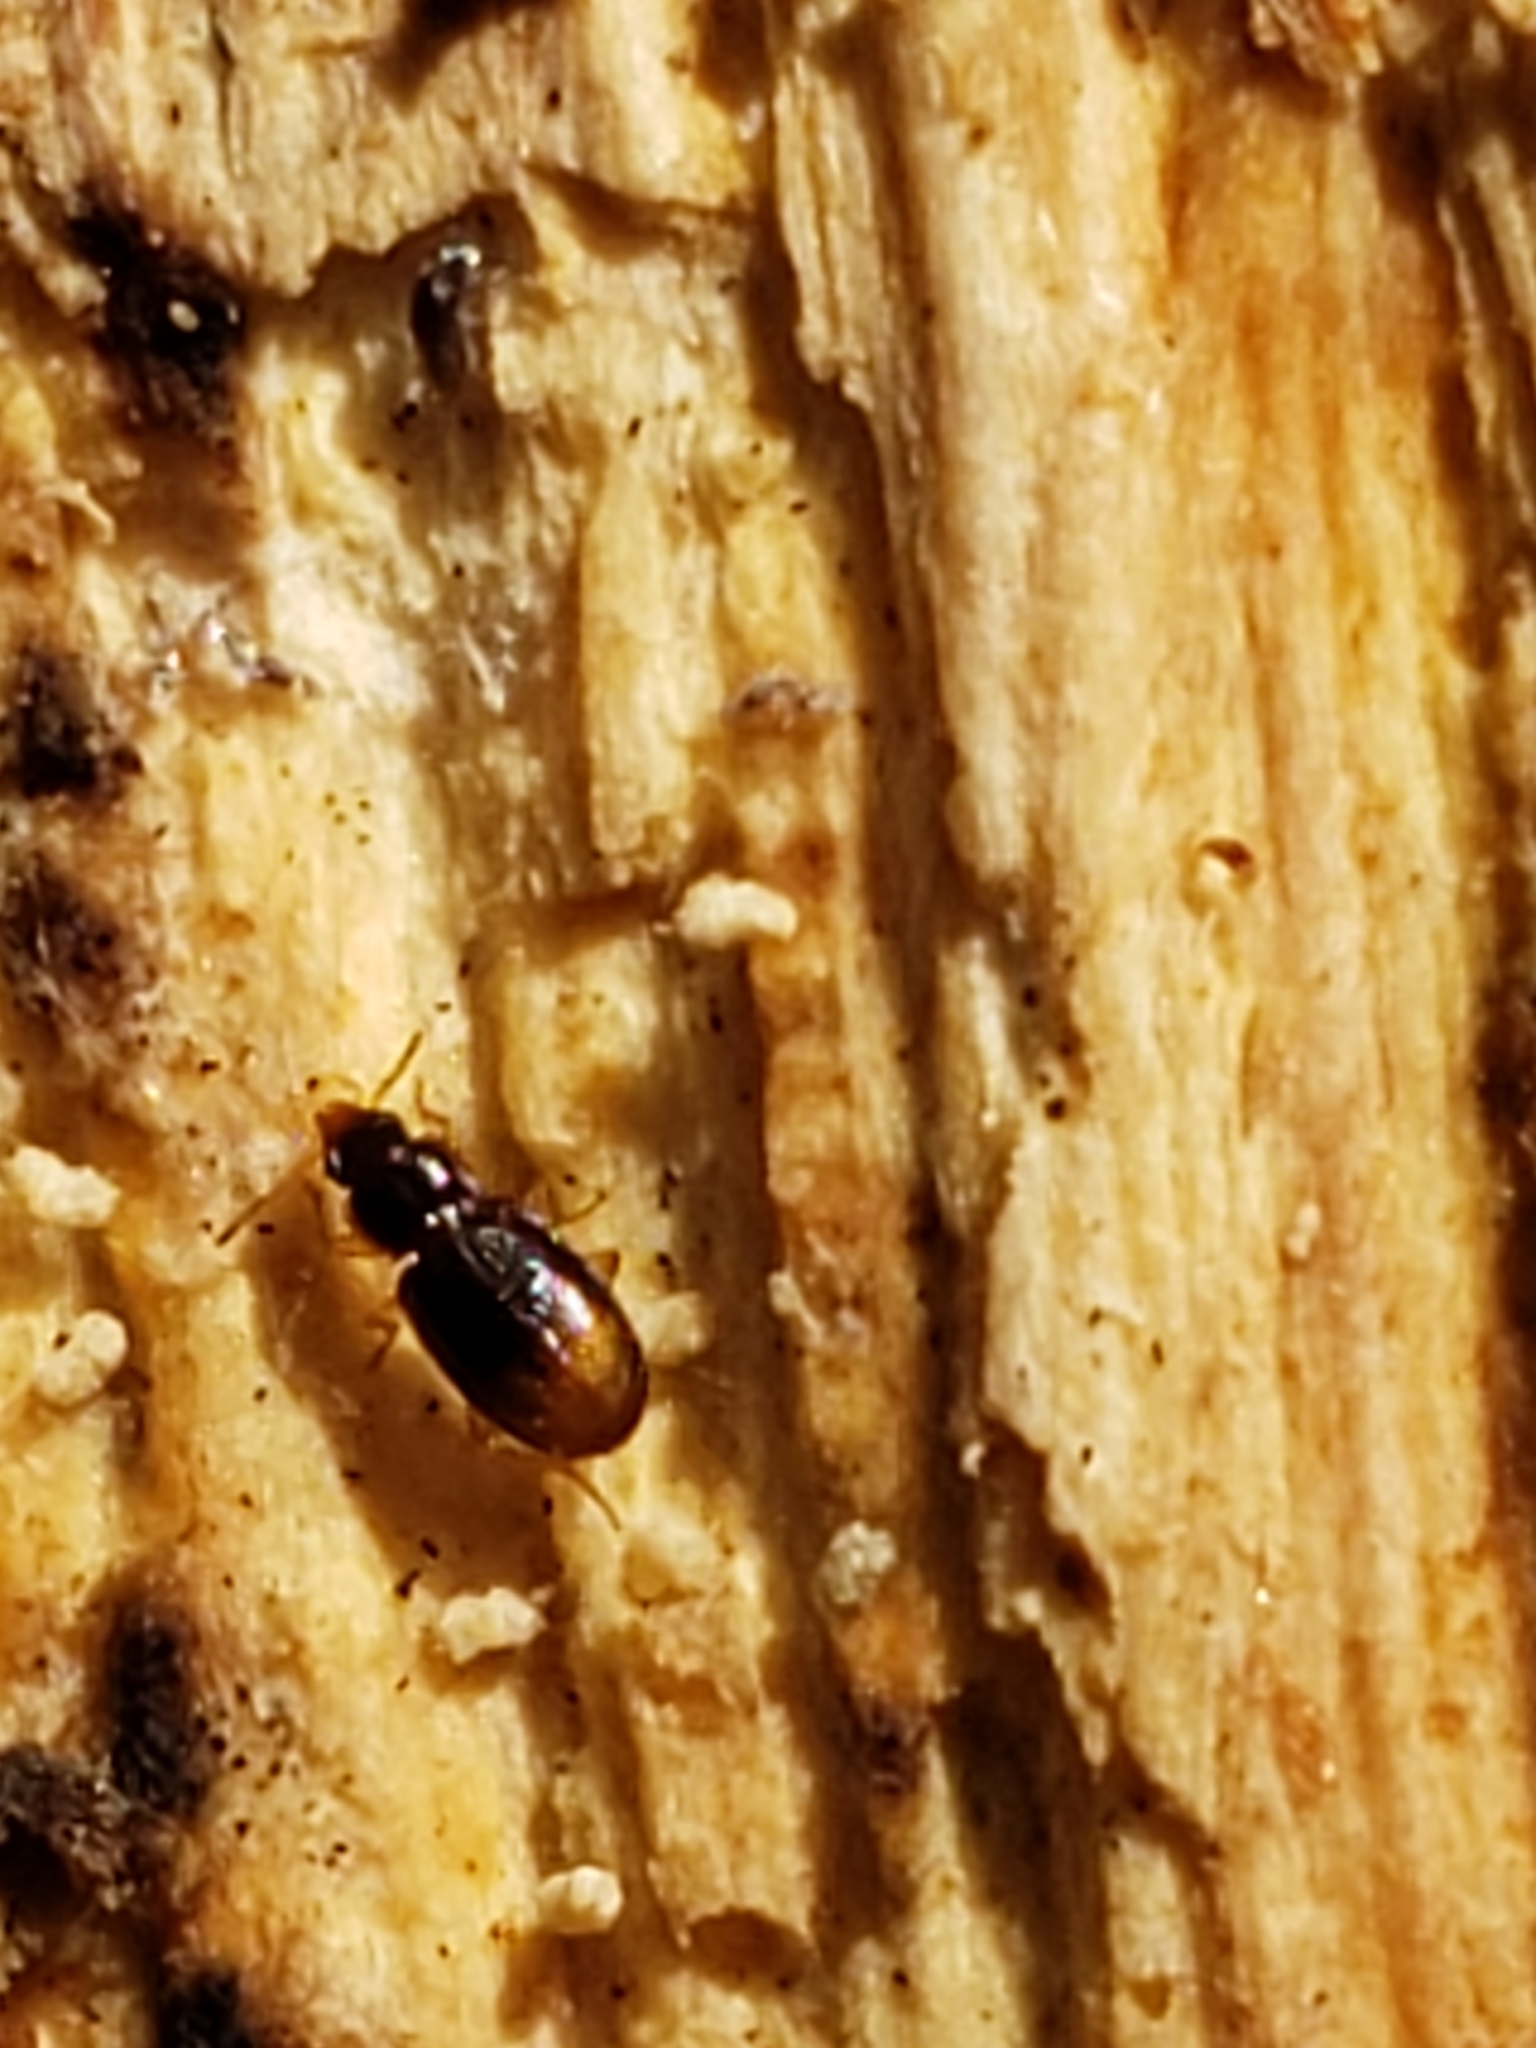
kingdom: Animalia
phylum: Arthropoda
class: Insecta
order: Coleoptera
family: Carabidae
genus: Mioptachys
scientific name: Mioptachys flavicauda
